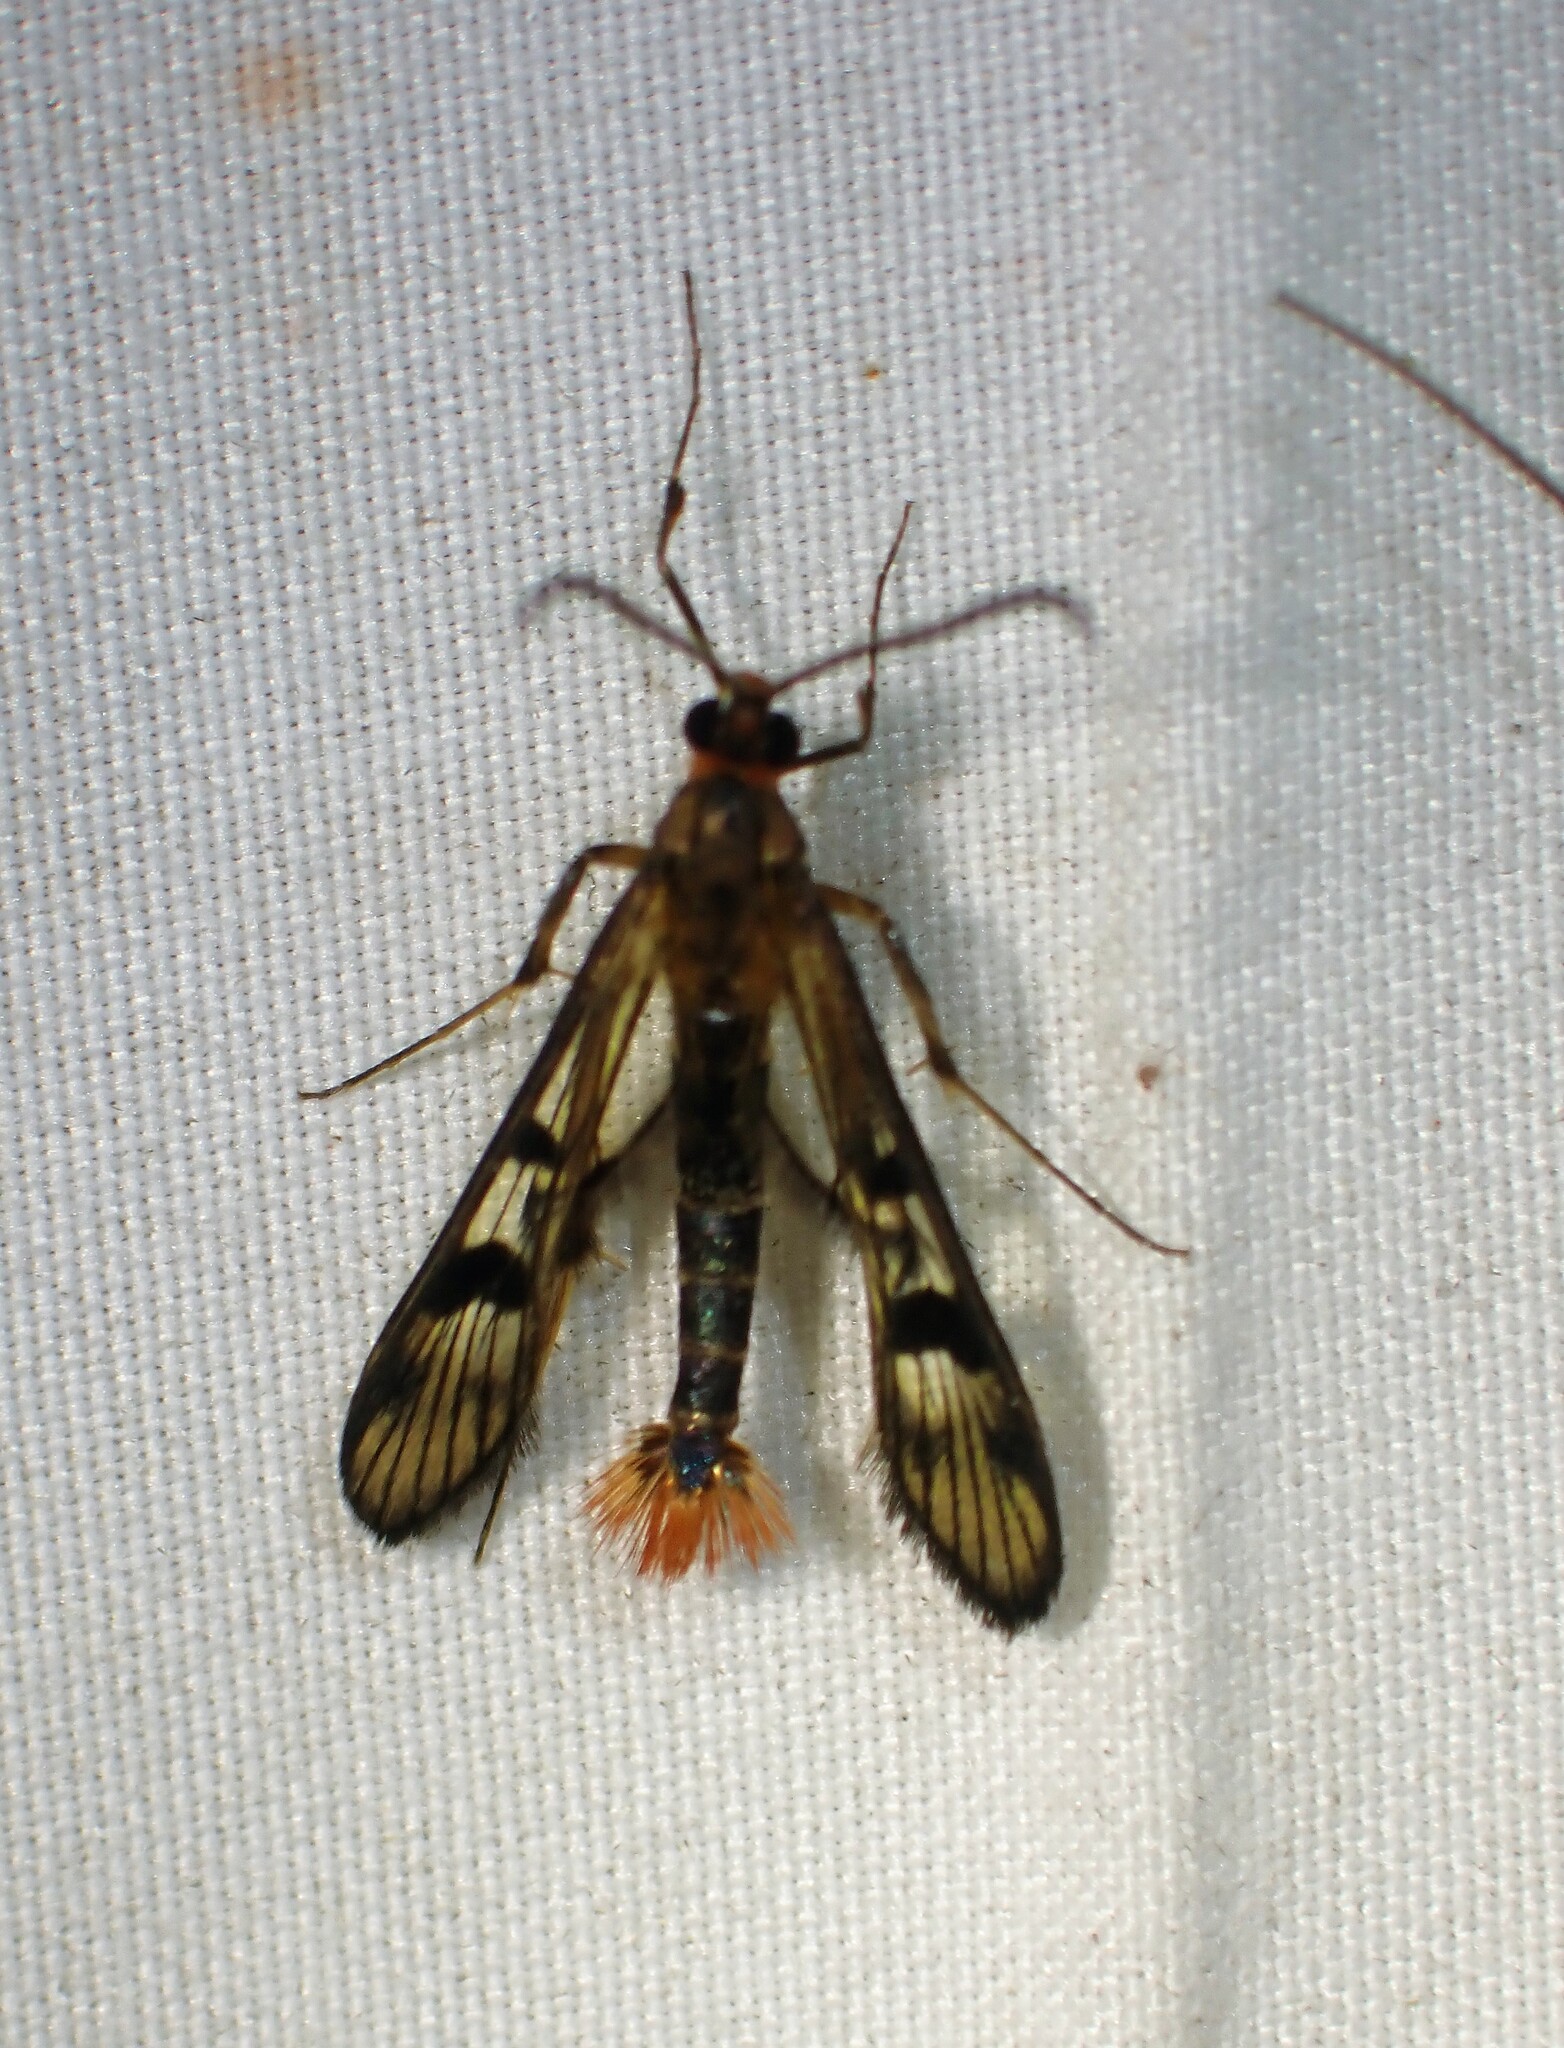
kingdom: Animalia
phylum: Arthropoda
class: Insecta
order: Lepidoptera
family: Sesiidae
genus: Synanthedon
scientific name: Synanthedon acerni
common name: Maple callus borer moth
